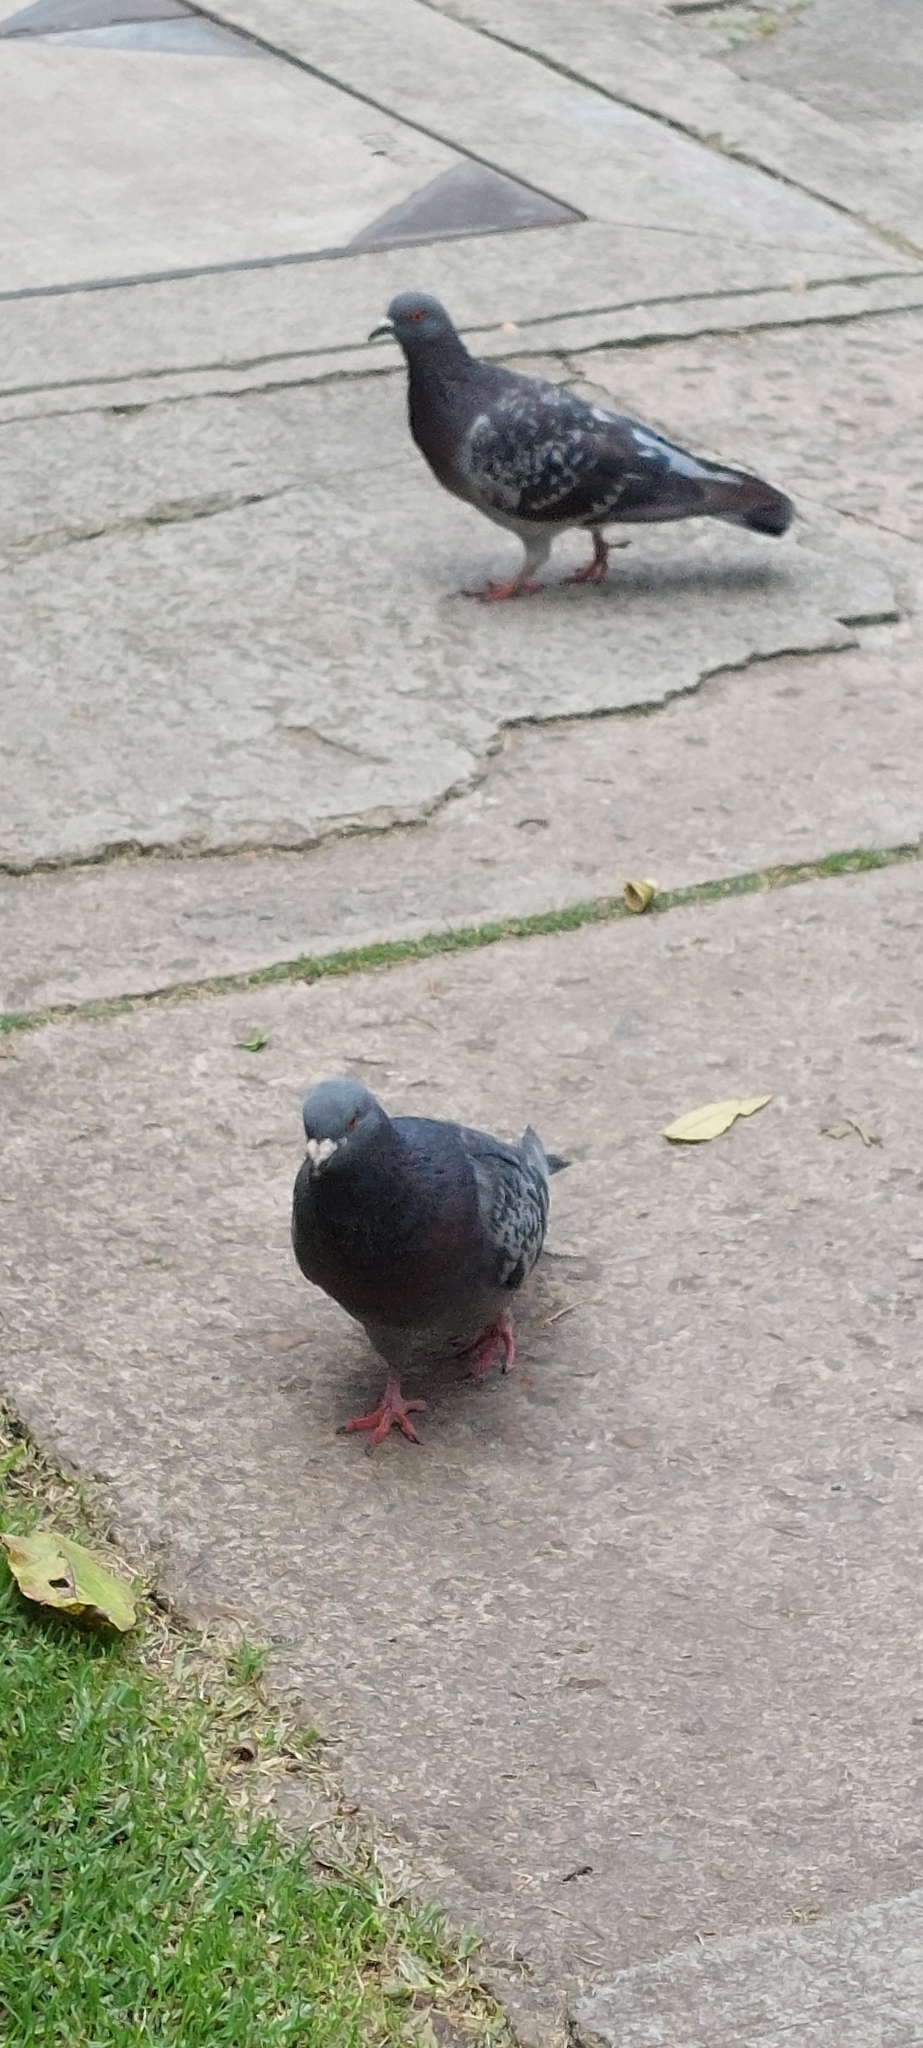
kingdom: Animalia
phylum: Chordata
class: Aves
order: Columbiformes
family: Columbidae
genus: Columba
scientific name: Columba livia
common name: Rock pigeon
